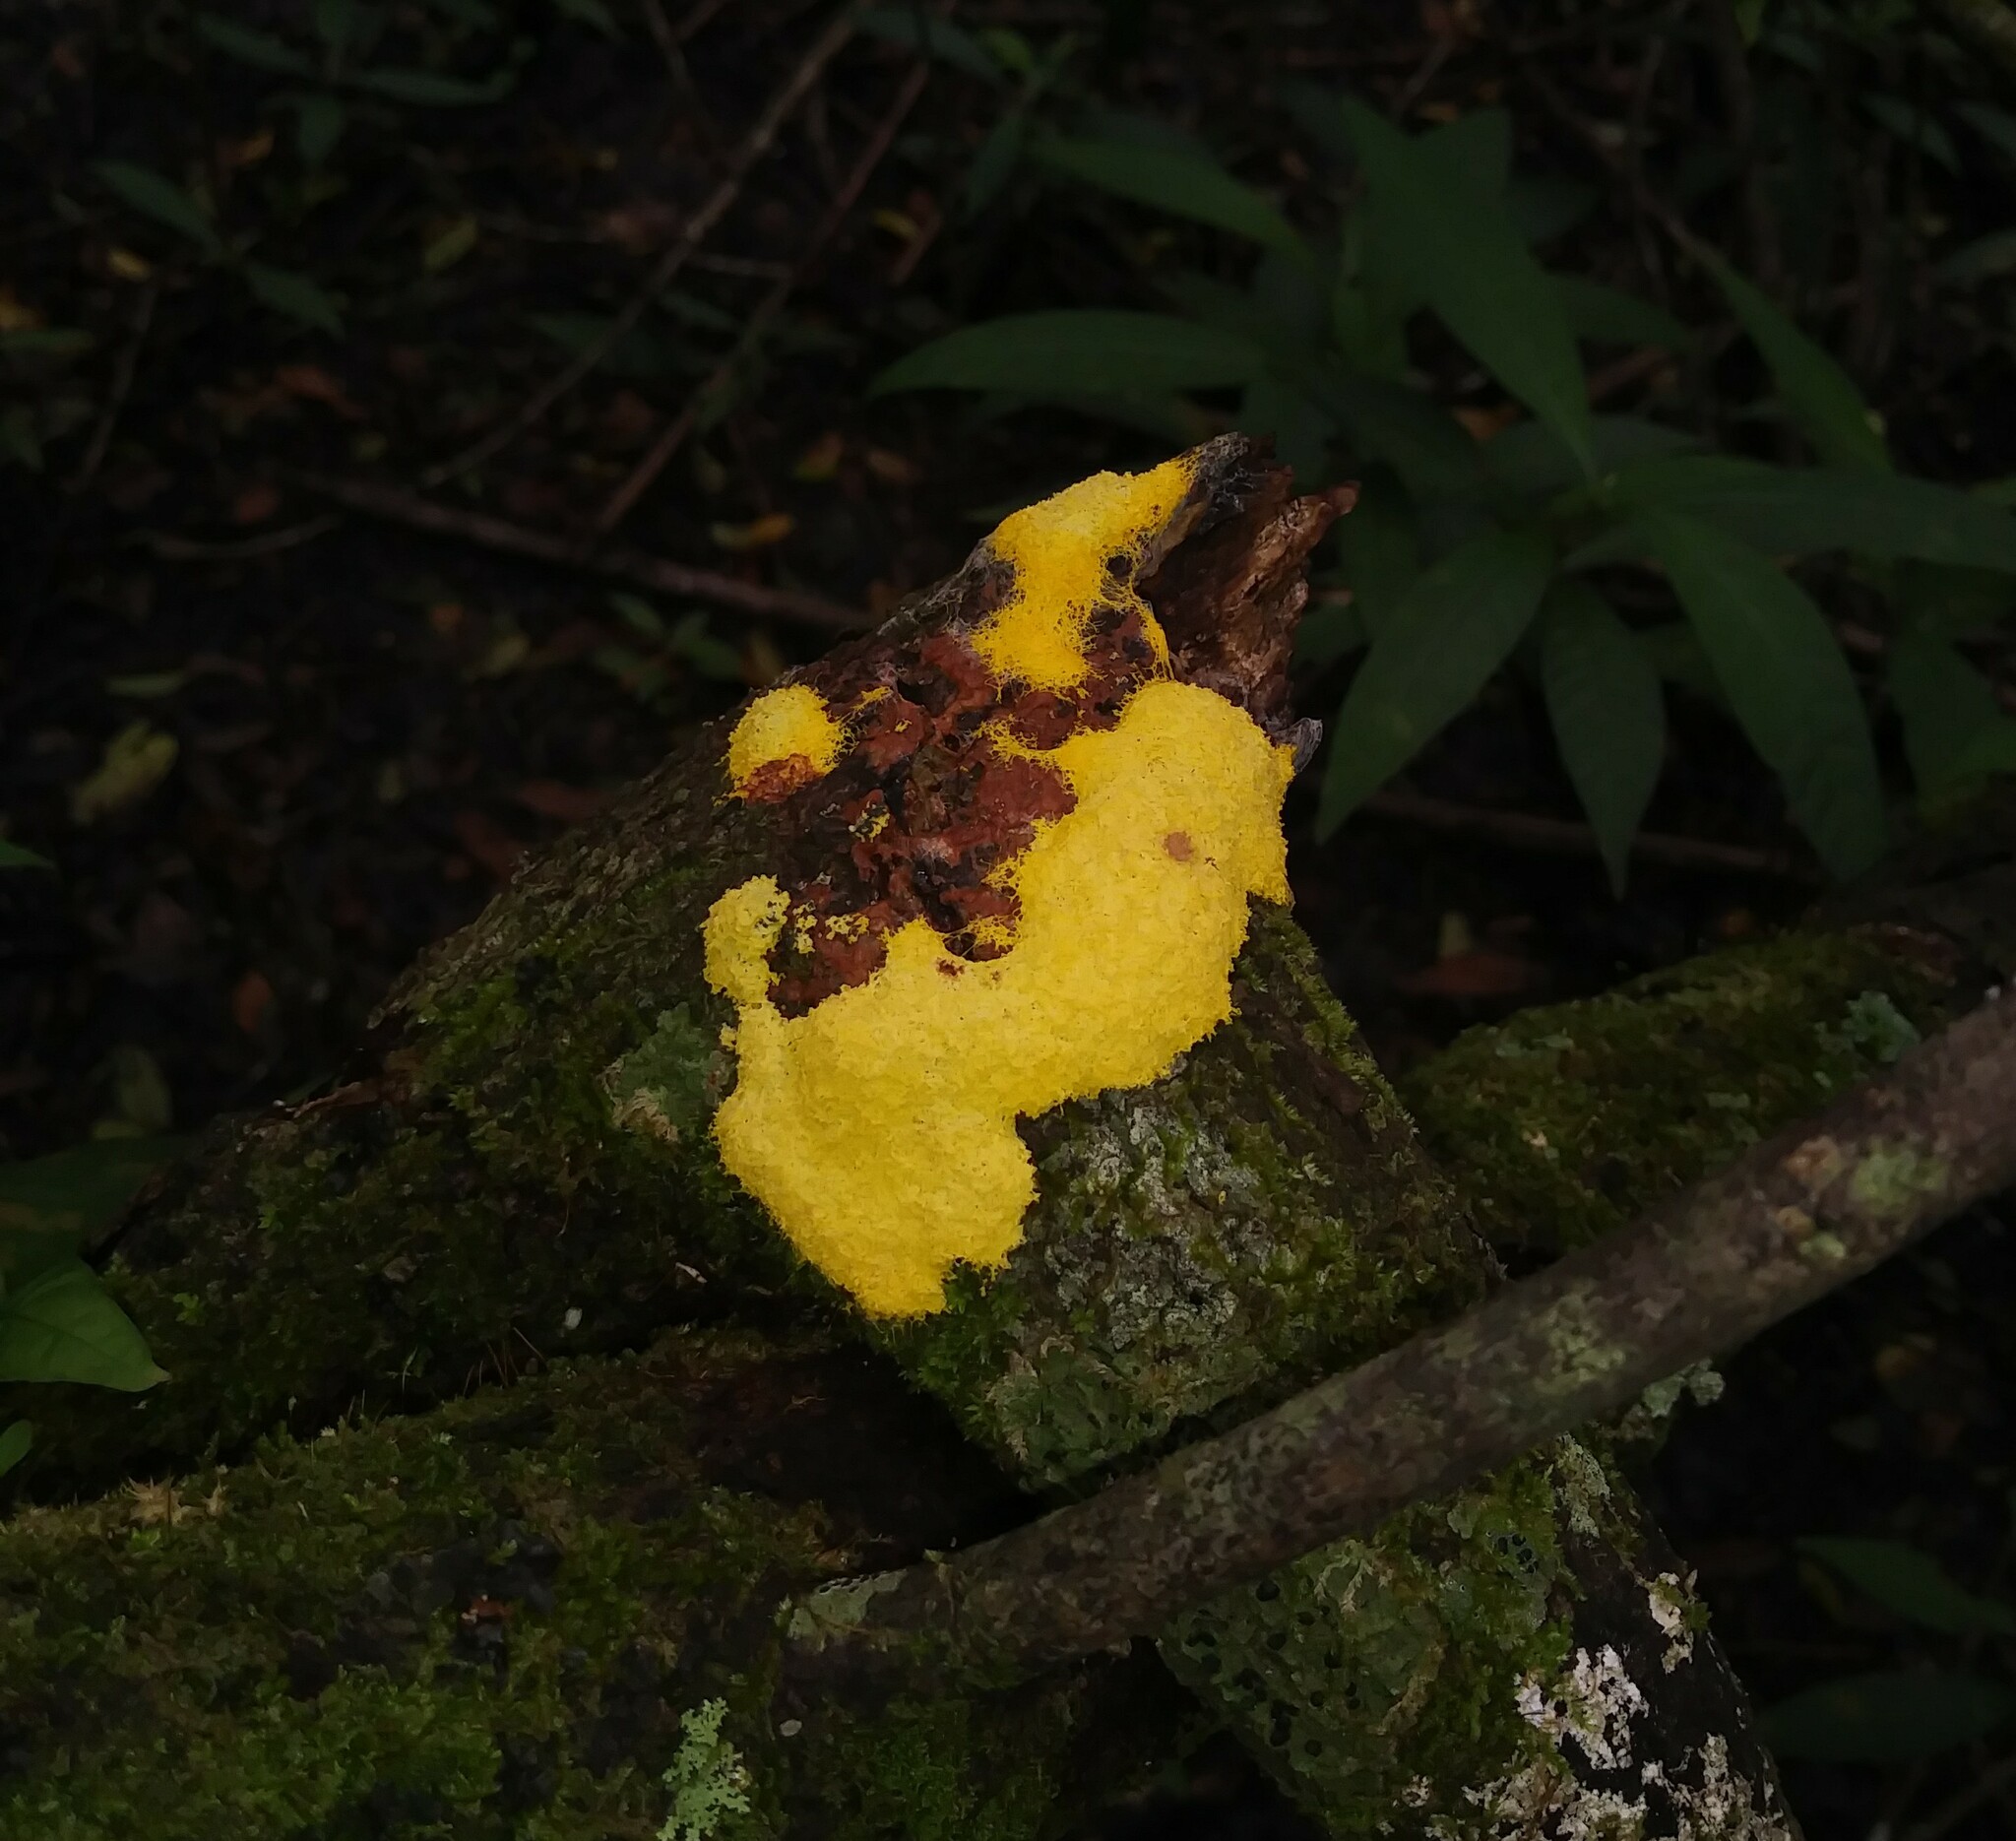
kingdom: Protozoa
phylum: Mycetozoa
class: Myxomycetes
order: Physarales
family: Physaraceae
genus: Fuligo
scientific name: Fuligo septica
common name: Dog vomit slime mold
